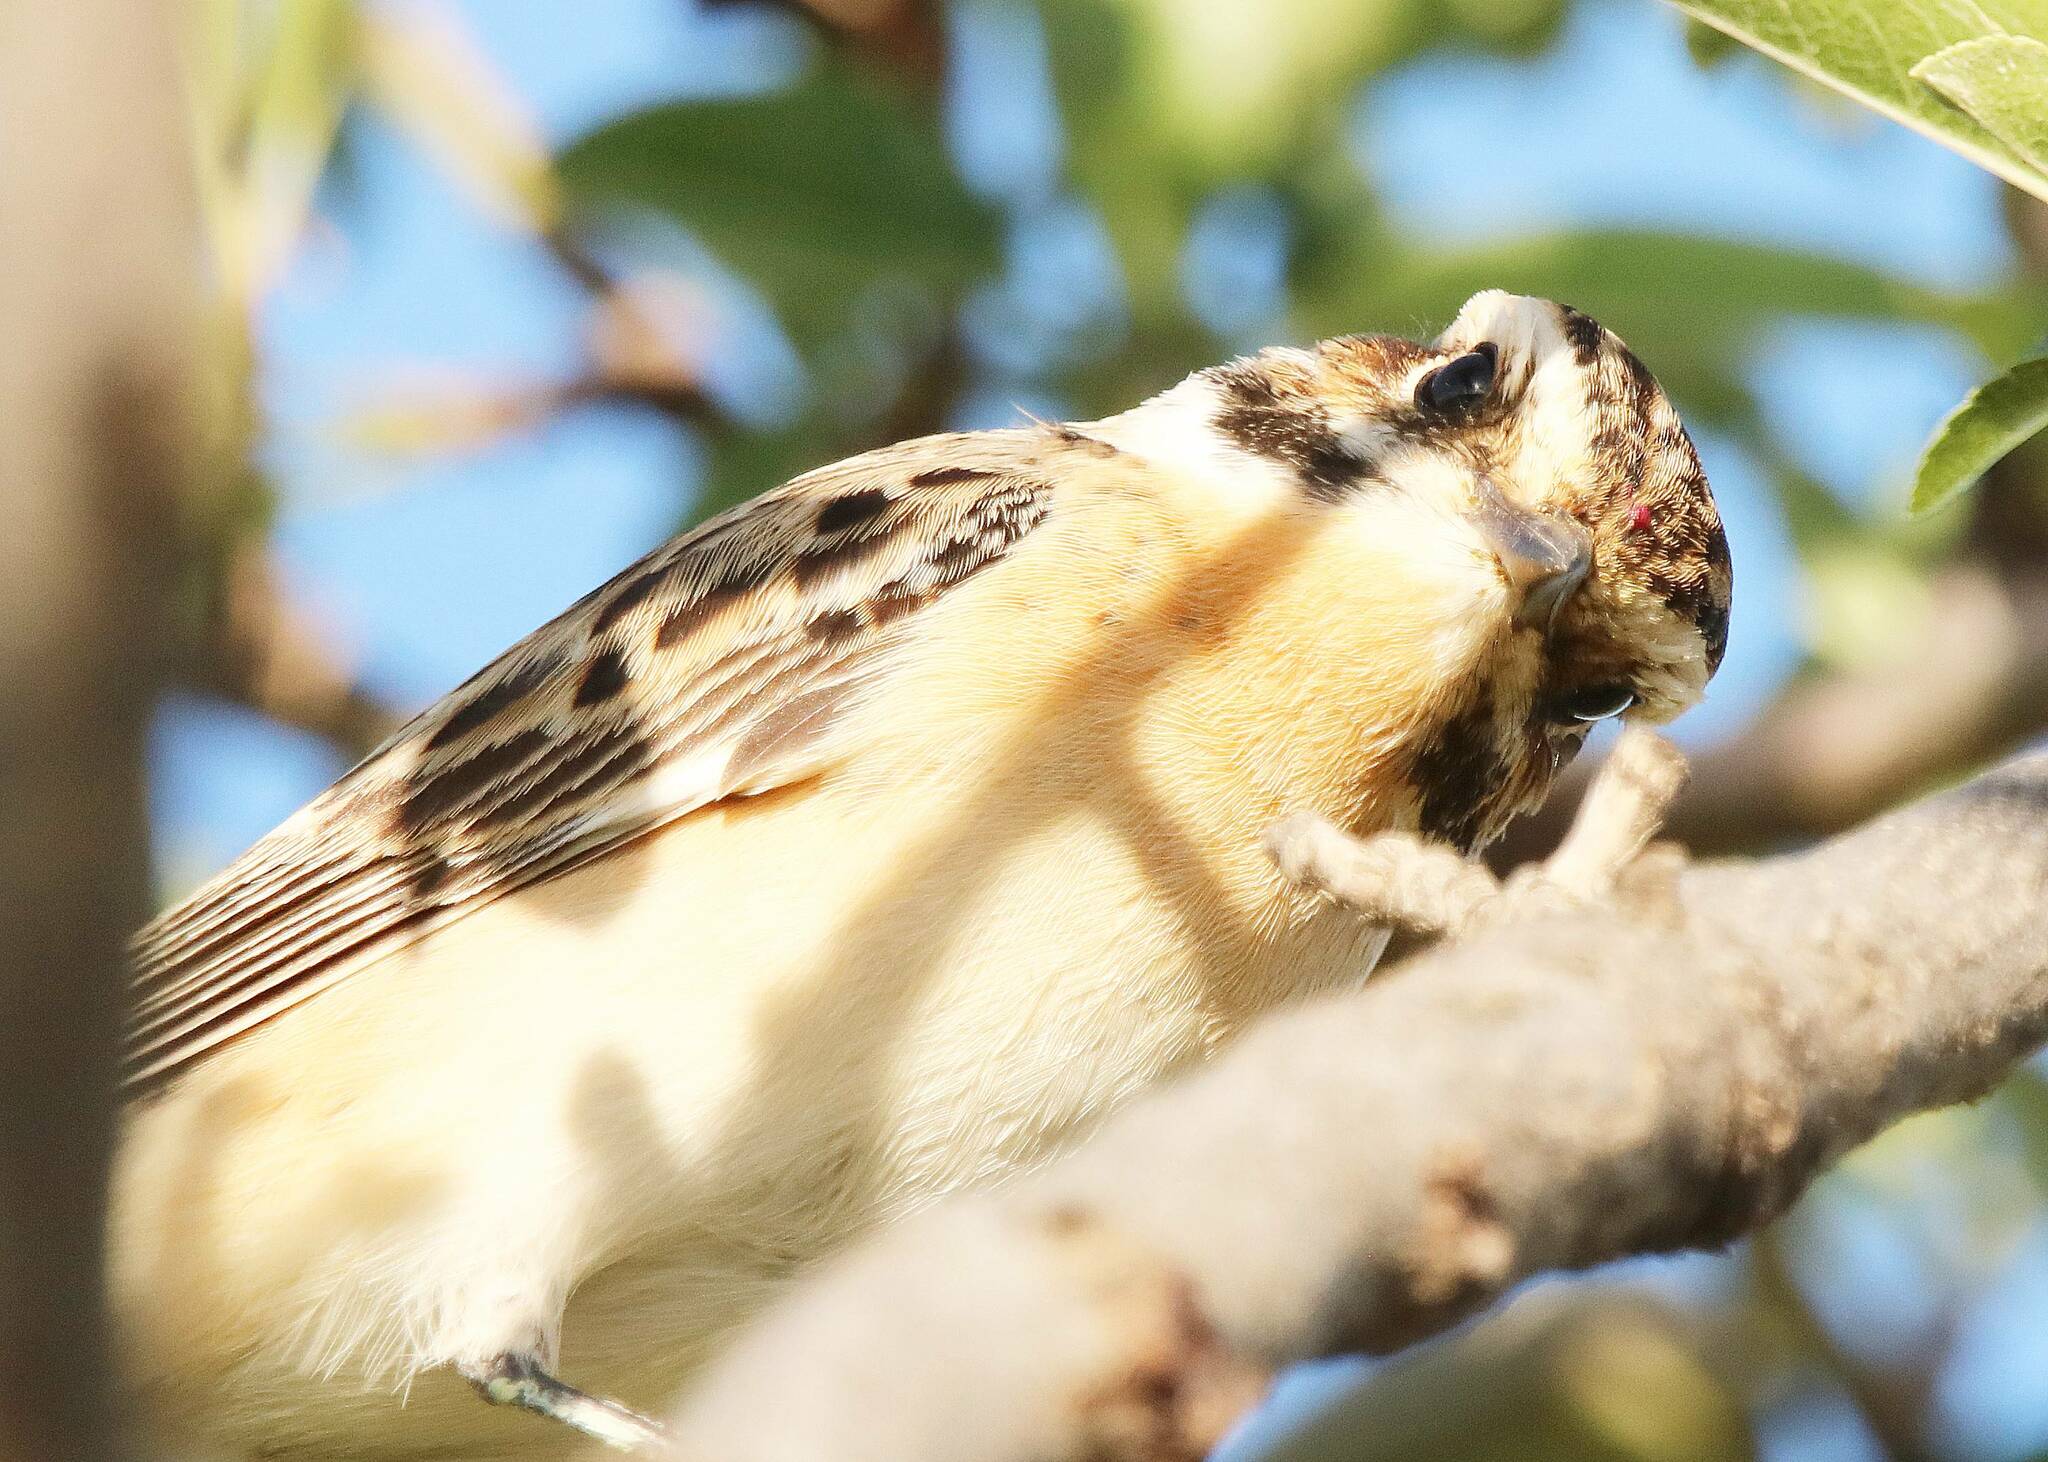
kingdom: Animalia
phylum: Chordata
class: Aves
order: Passeriformes
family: Muscicapidae
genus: Saxicola
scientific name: Saxicola rubetra
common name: Whinchat
